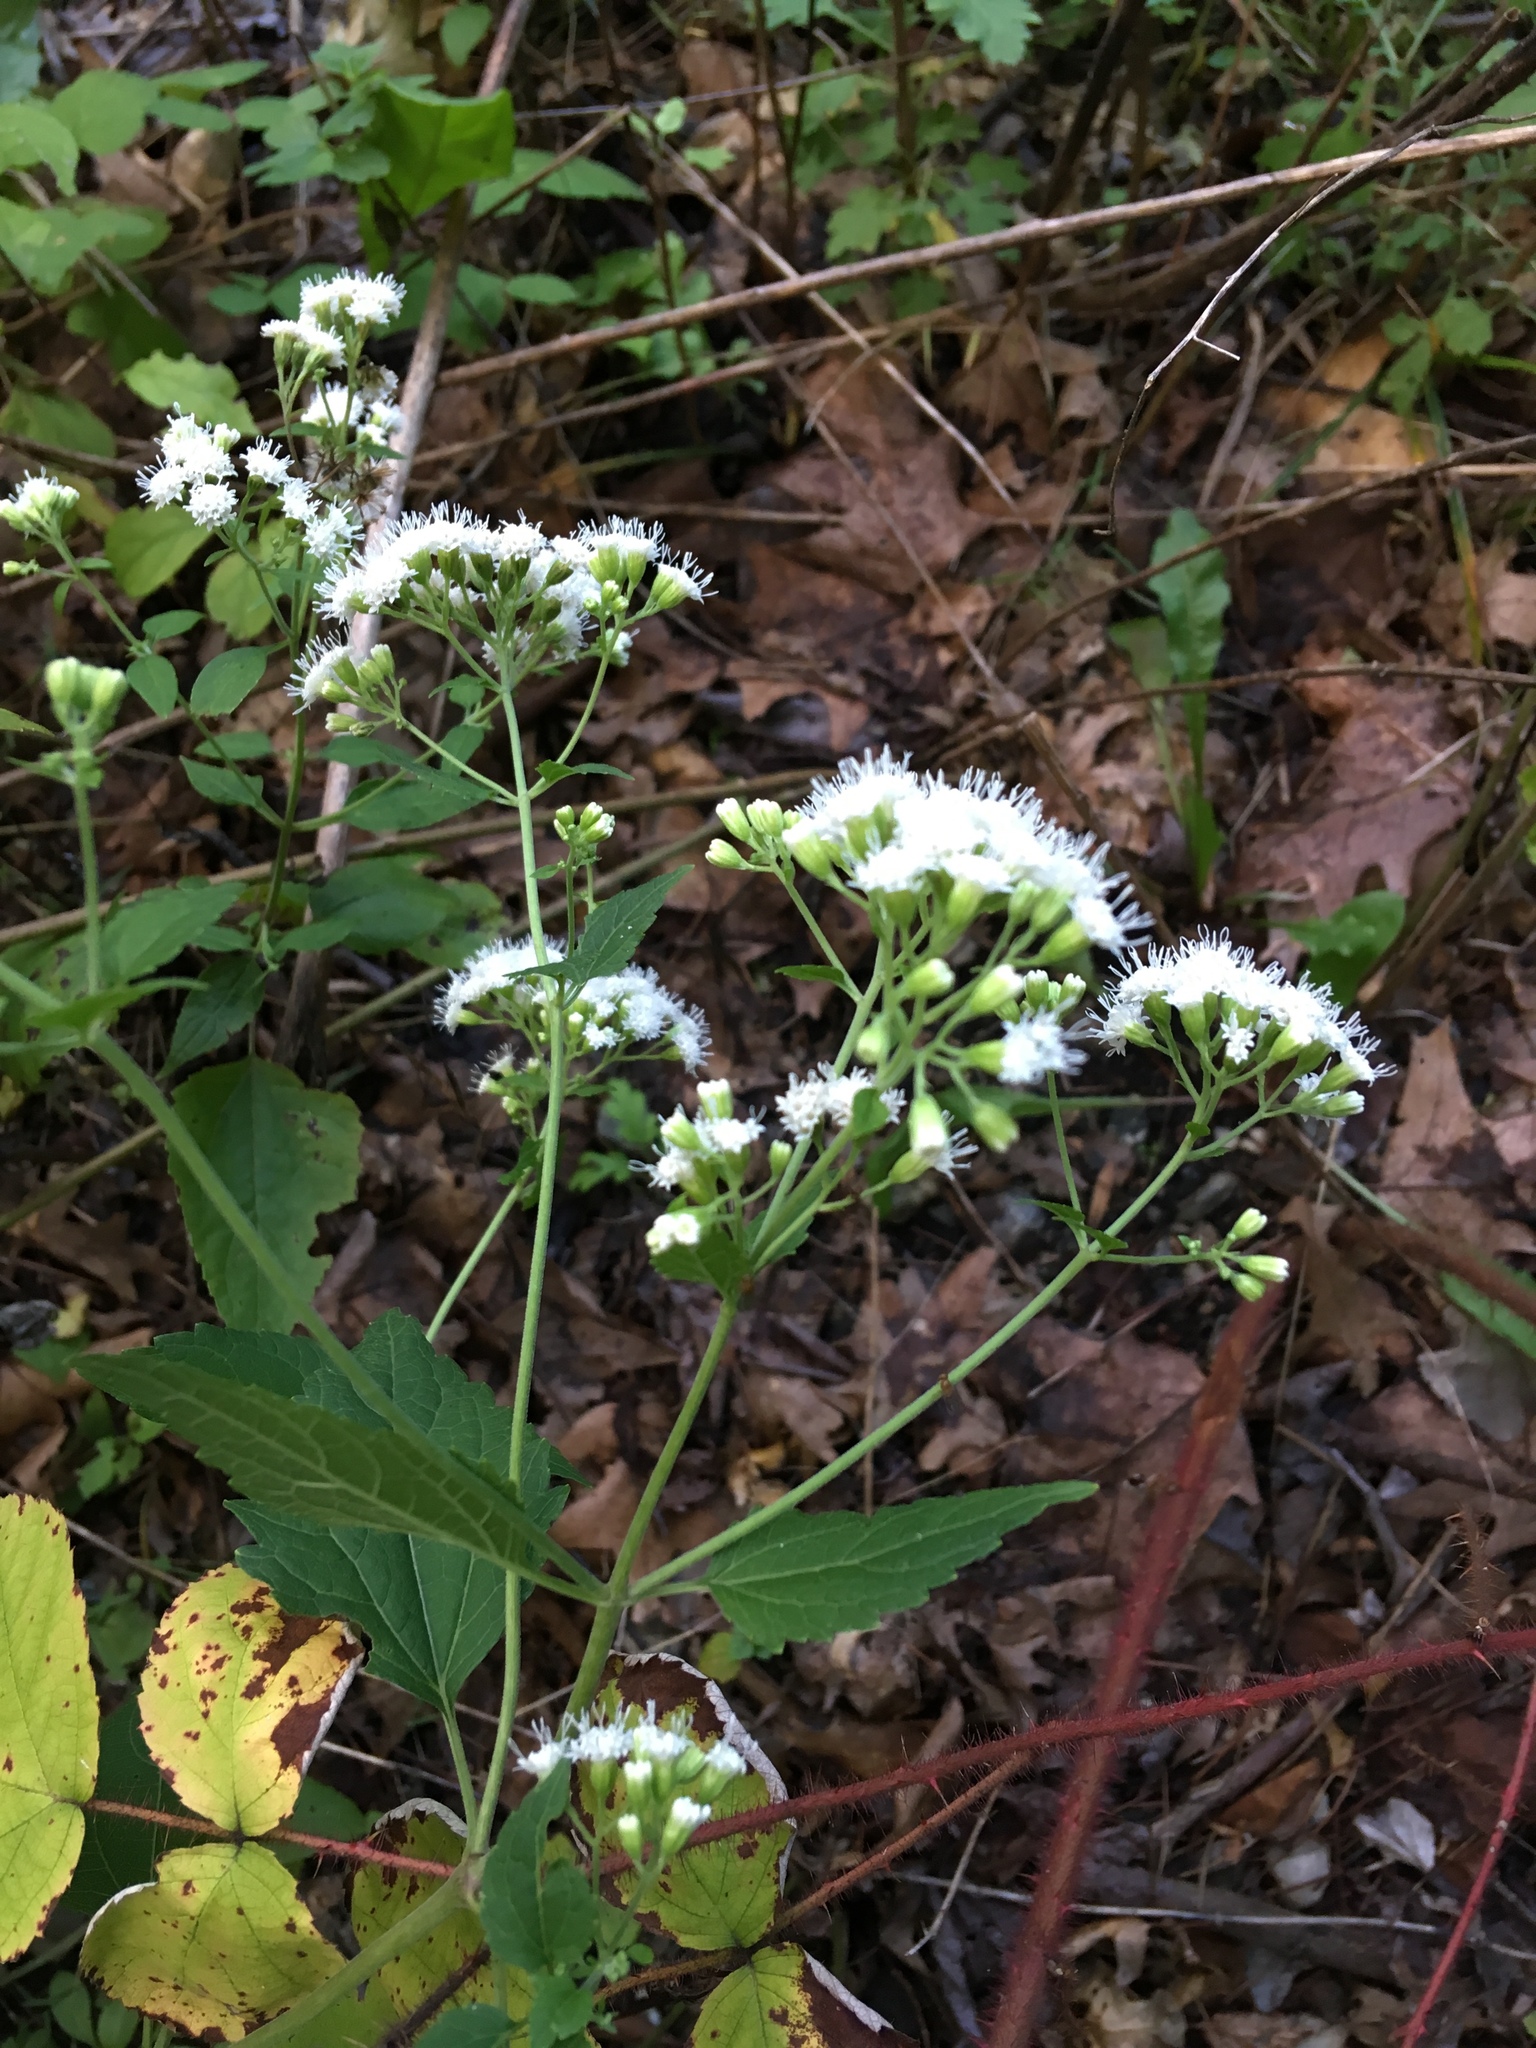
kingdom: Plantae
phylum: Tracheophyta
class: Magnoliopsida
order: Asterales
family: Asteraceae
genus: Ageratina
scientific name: Ageratina altissima
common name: White snakeroot
